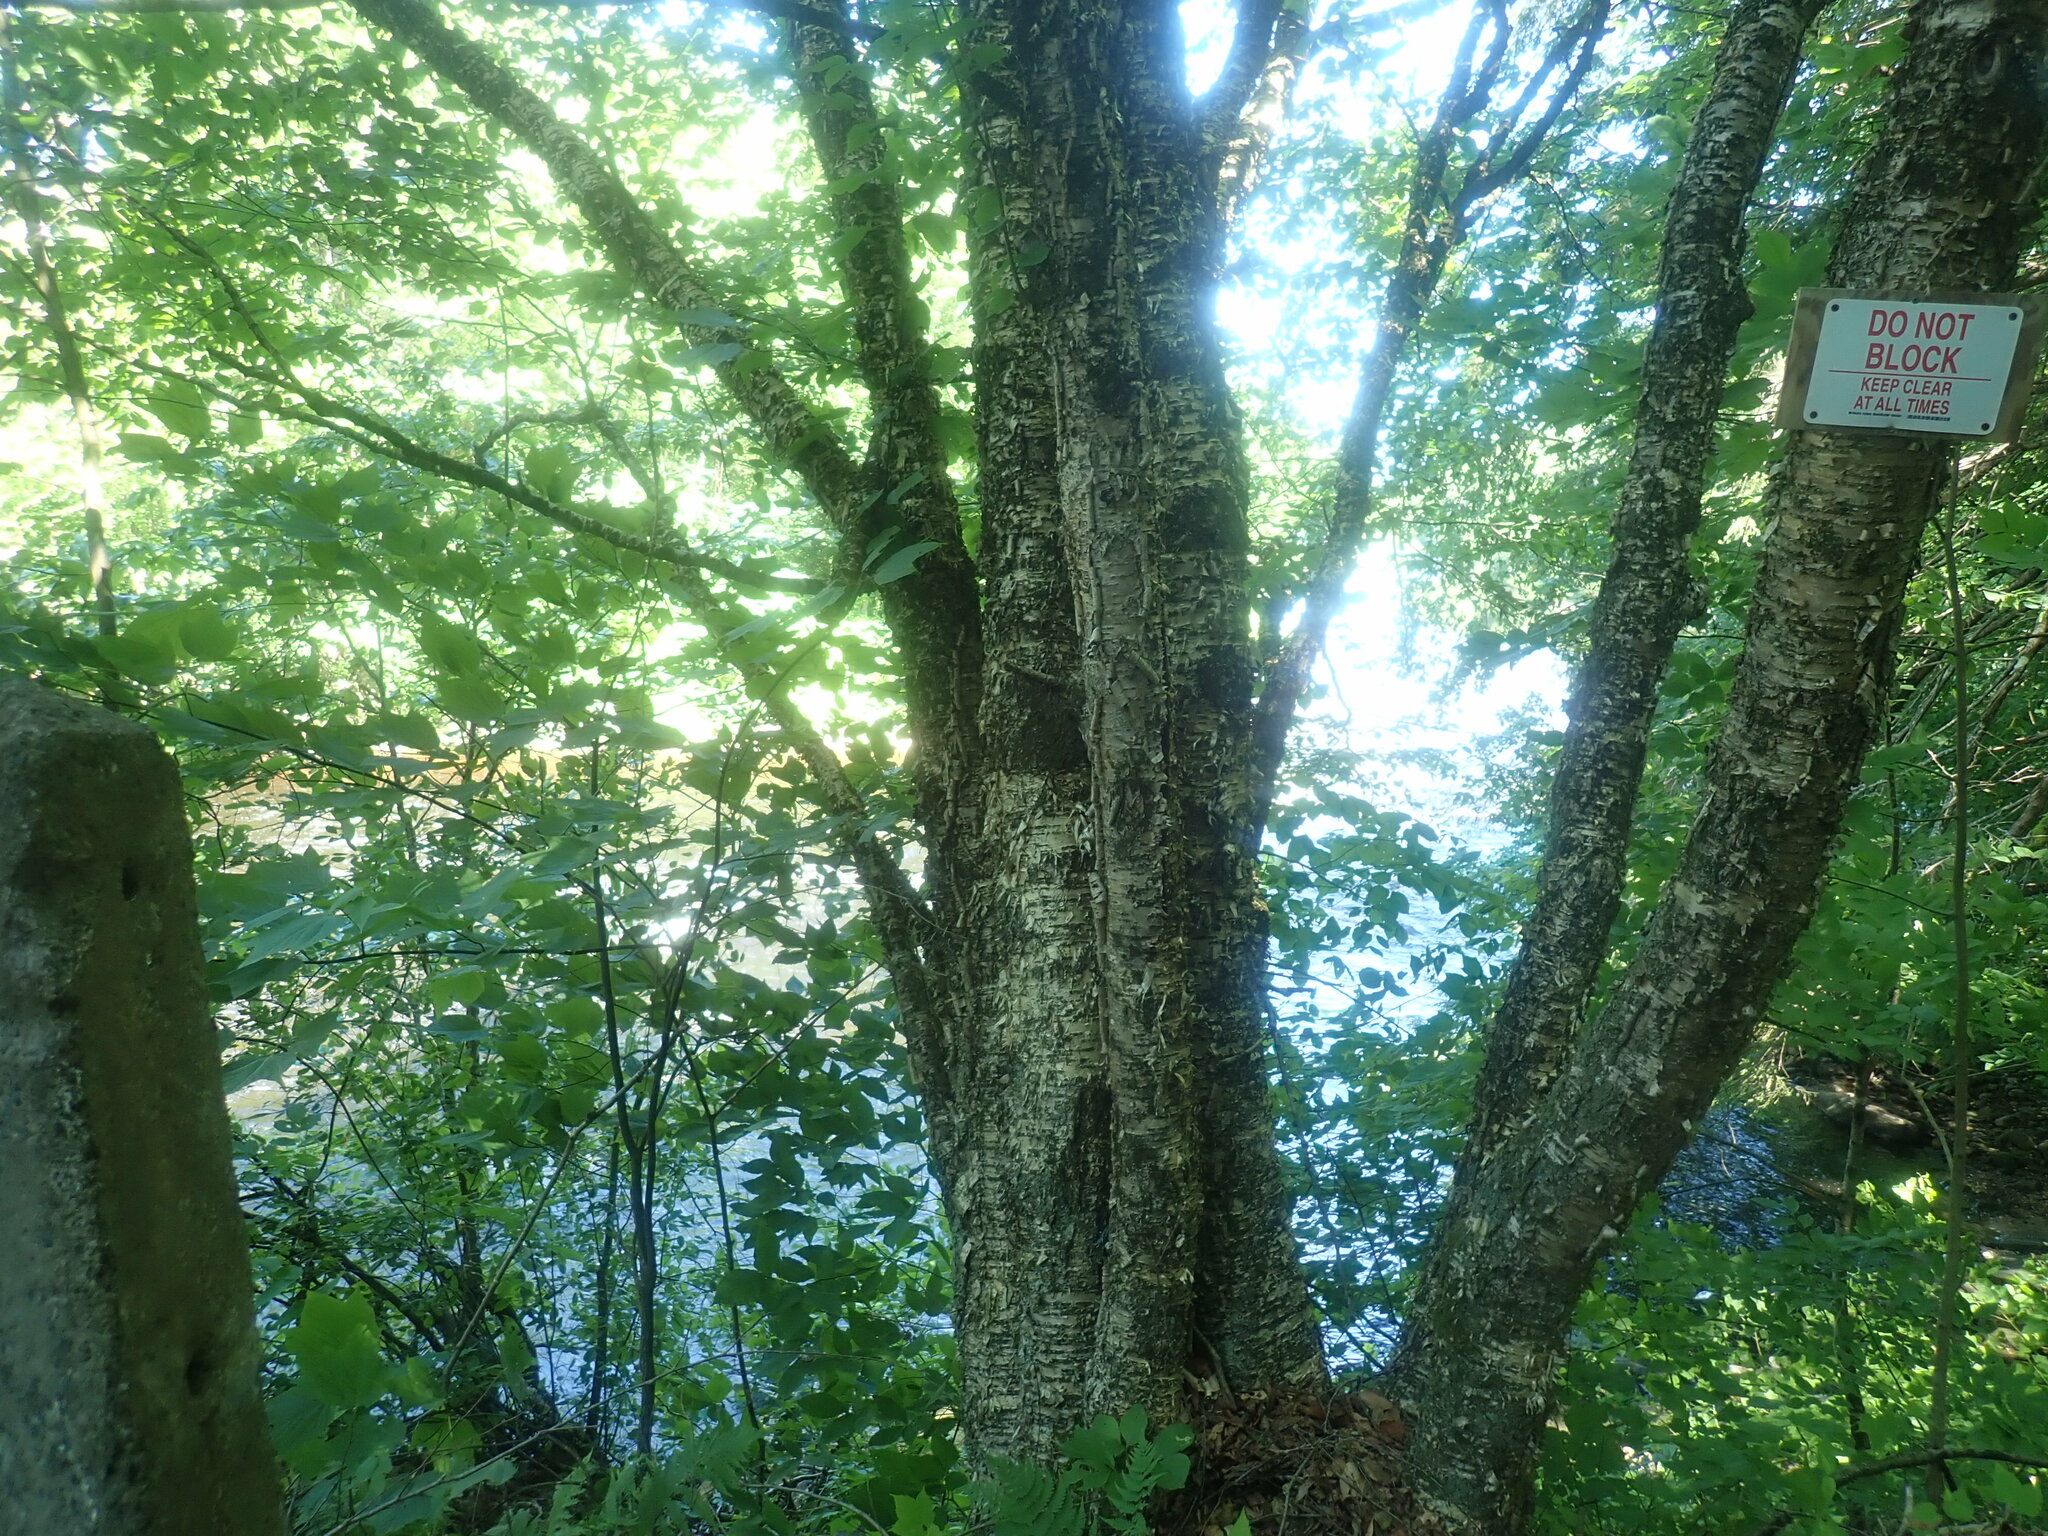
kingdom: Plantae
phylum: Tracheophyta
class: Magnoliopsida
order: Fagales
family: Betulaceae
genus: Betula
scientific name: Betula alleghaniensis
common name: Yellow birch
